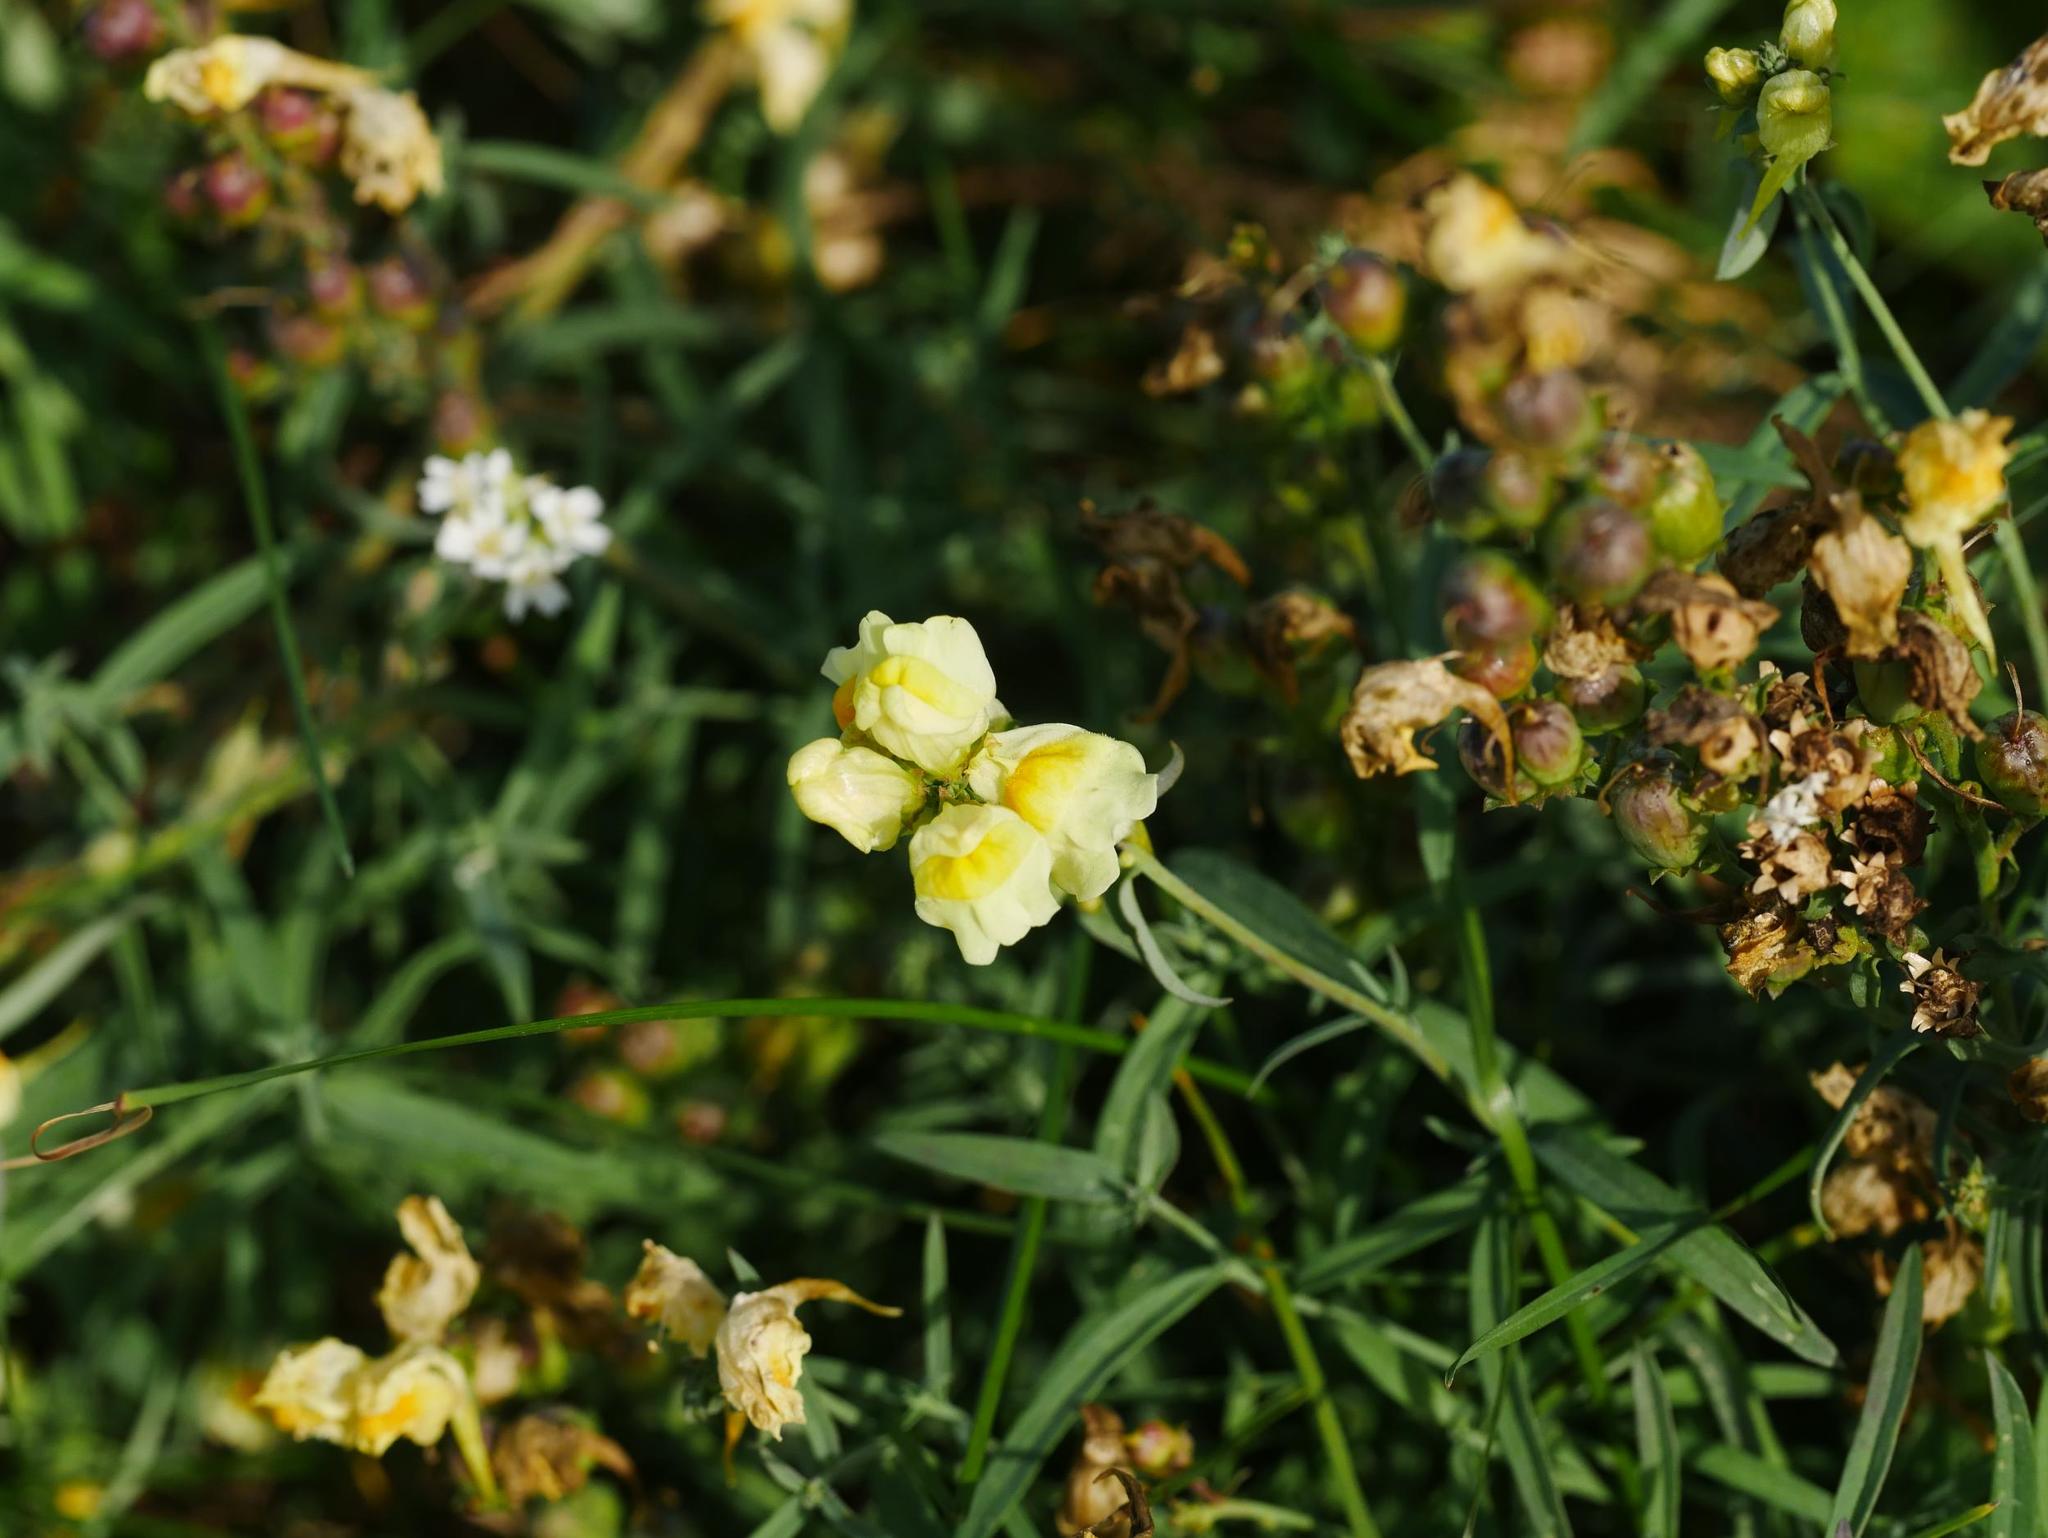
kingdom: Plantae
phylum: Tracheophyta
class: Magnoliopsida
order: Lamiales
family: Plantaginaceae
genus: Linaria
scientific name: Linaria vulgaris
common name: Butter and eggs
